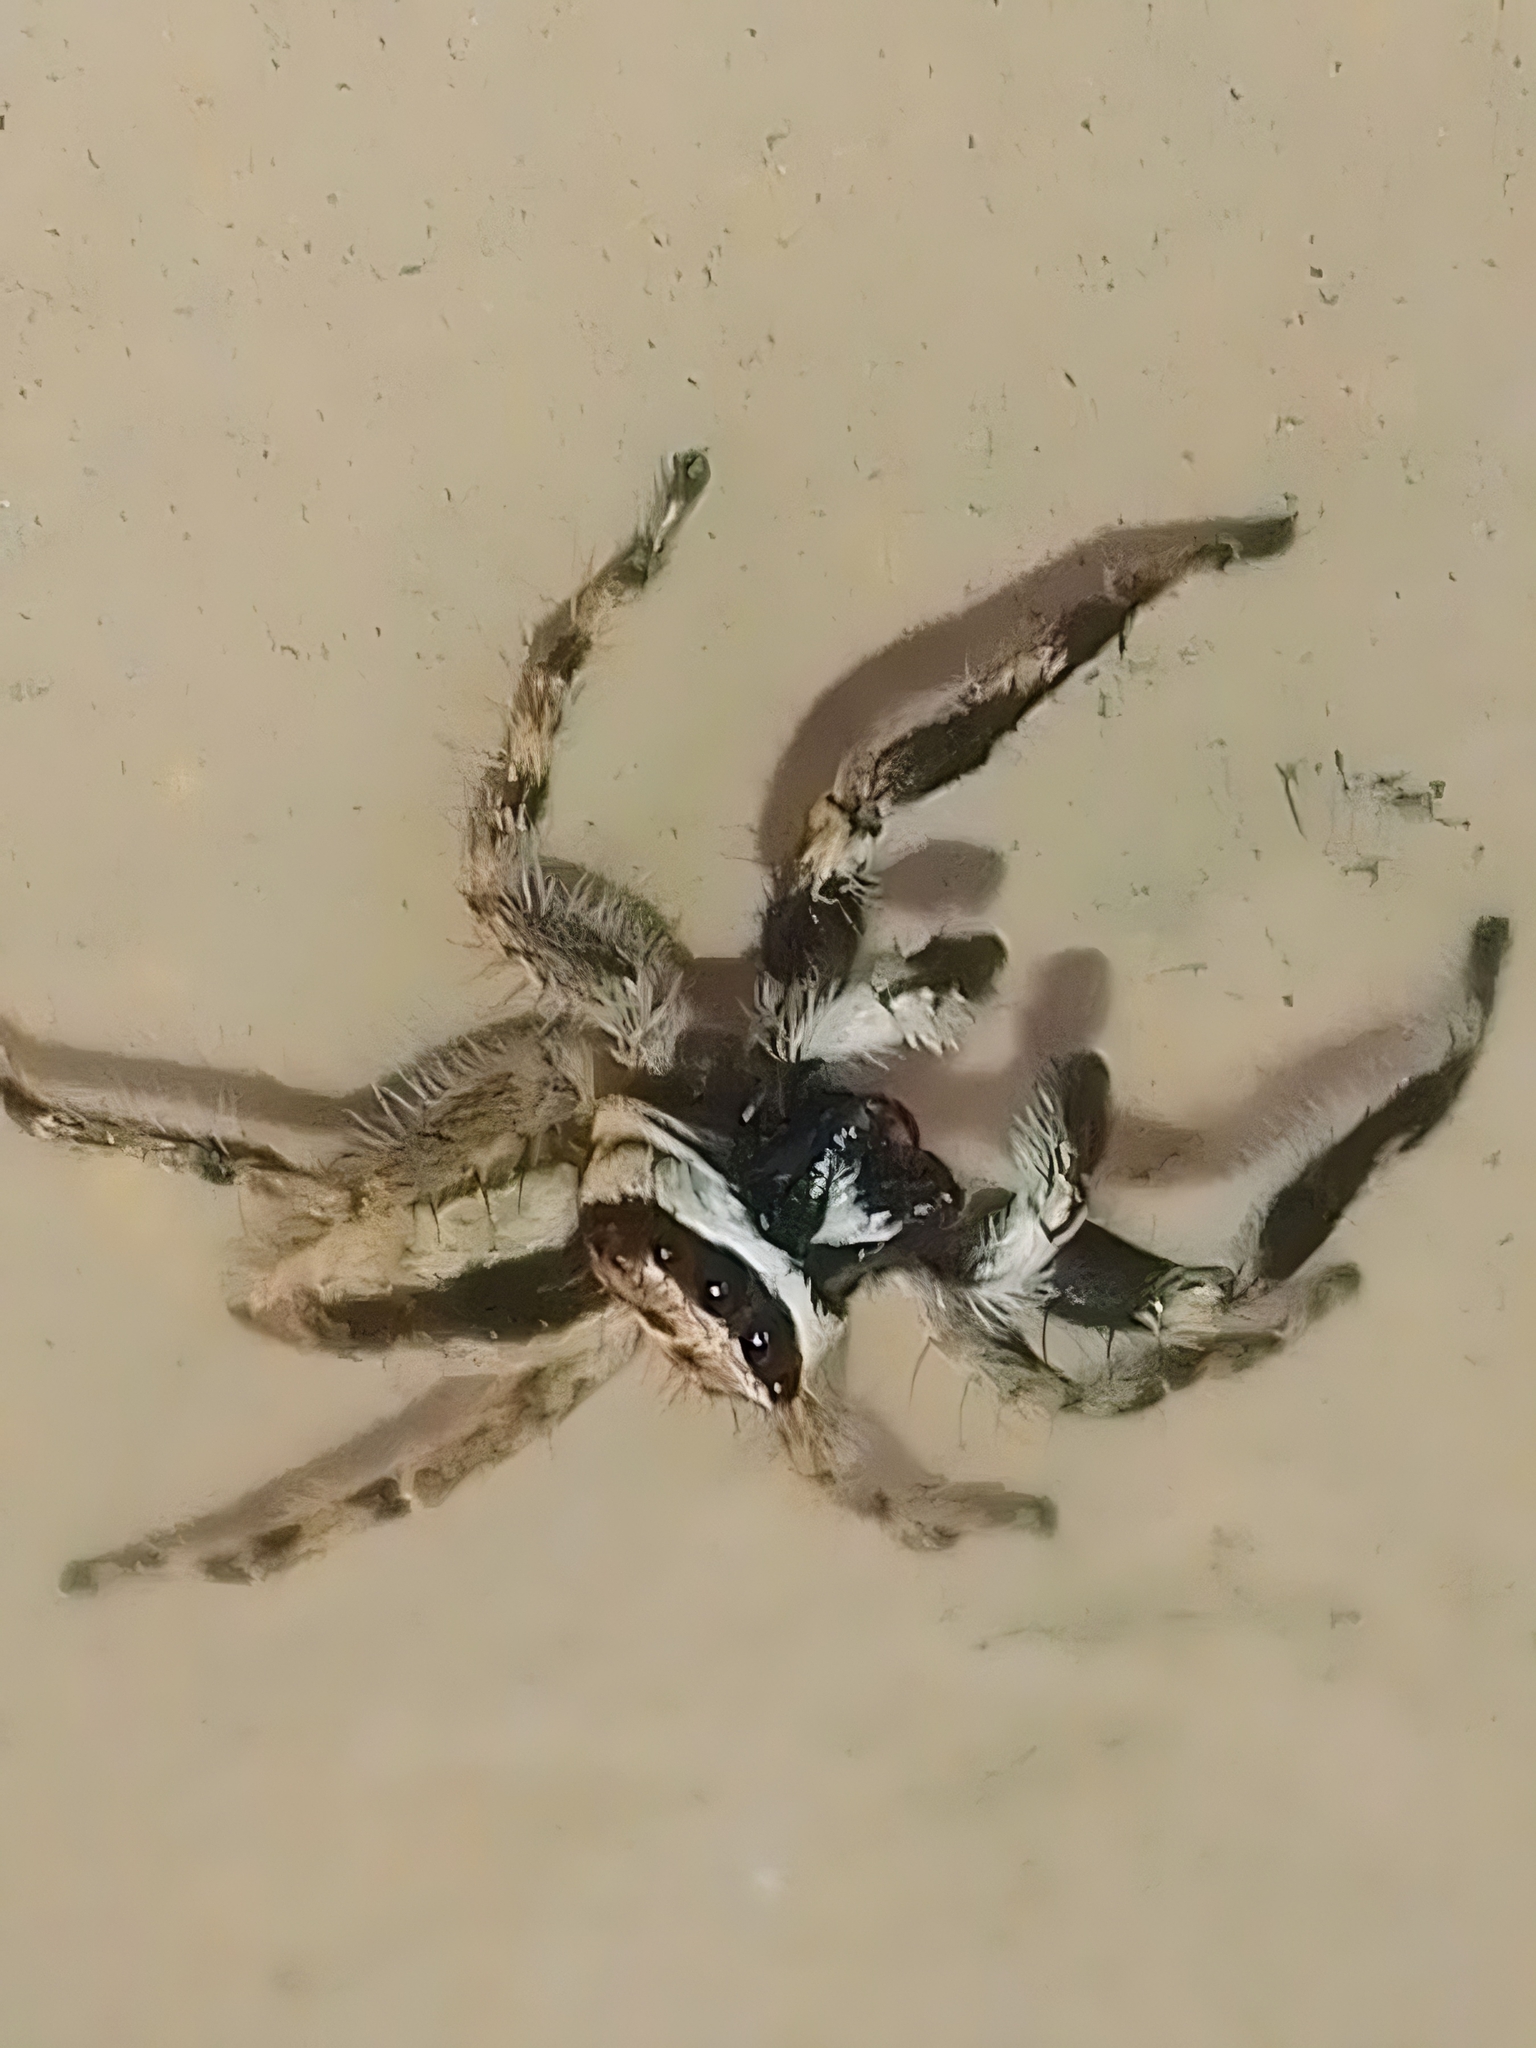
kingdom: Animalia
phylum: Arthropoda
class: Arachnida
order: Araneae
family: Salticidae
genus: Menemerus
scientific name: Menemerus bivittatus
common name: Gray wall jumper
